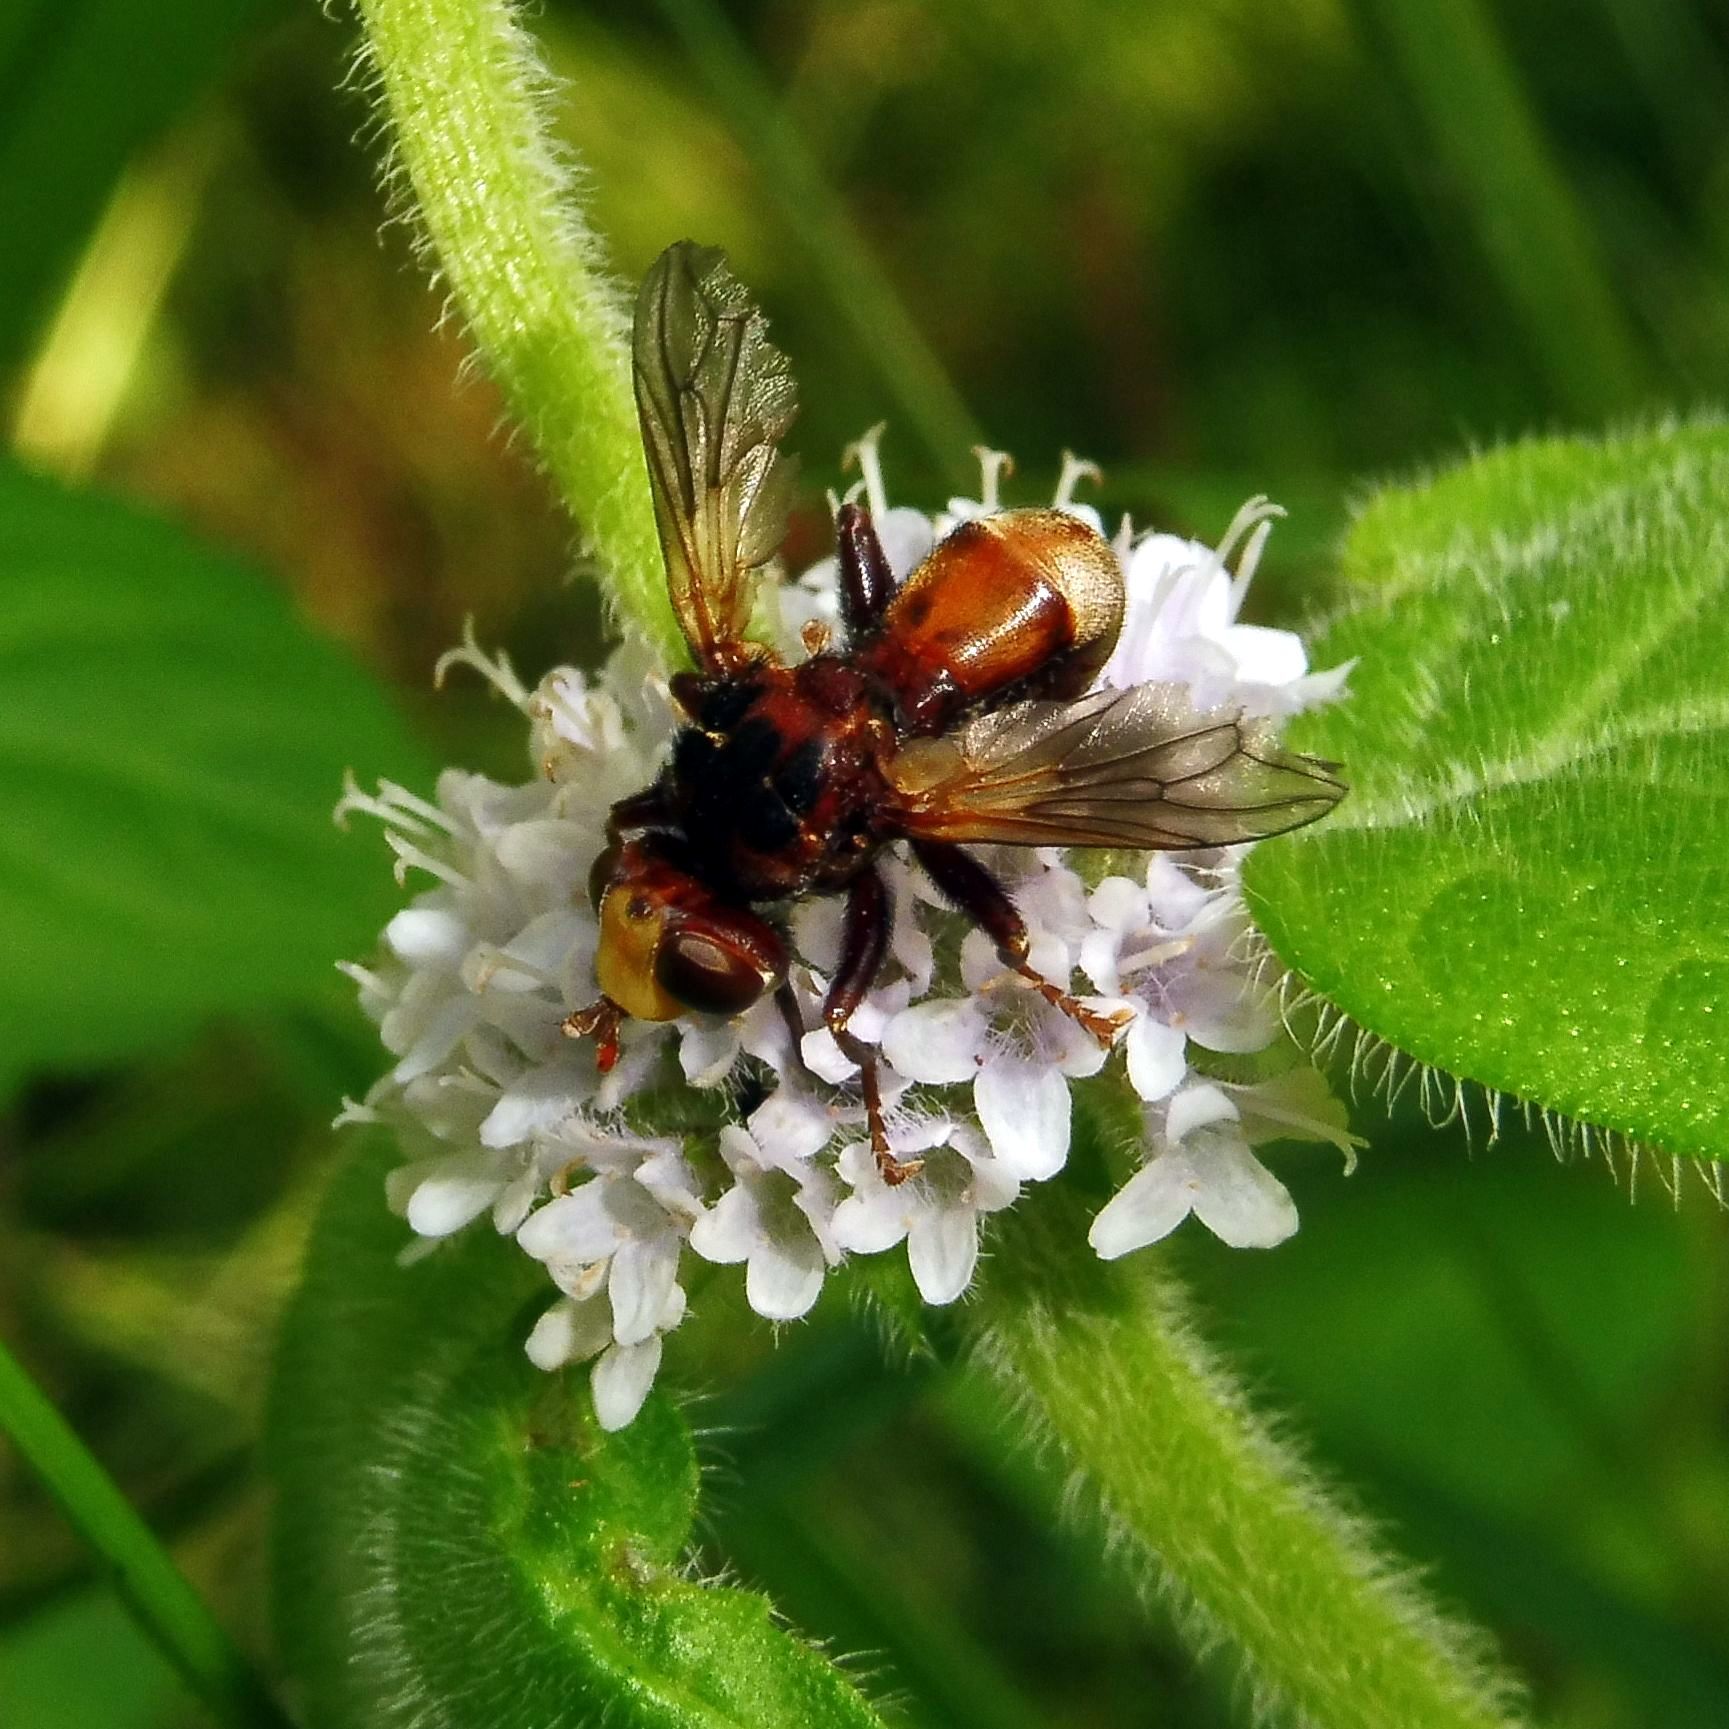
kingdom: Animalia
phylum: Arthropoda
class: Insecta
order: Diptera
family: Conopidae
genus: Sicus
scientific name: Sicus ferrugineus
